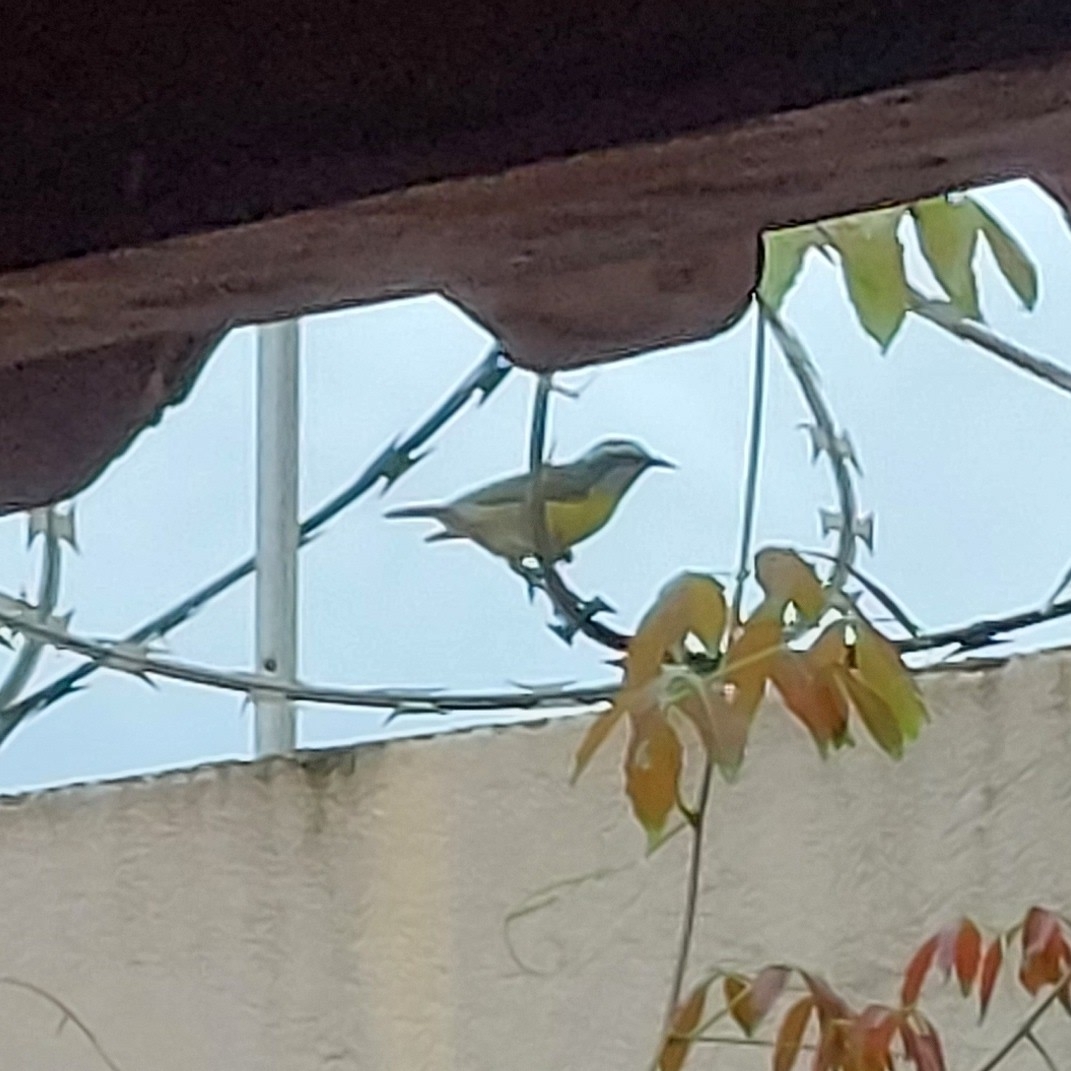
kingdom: Animalia
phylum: Chordata
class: Aves
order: Passeriformes
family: Thraupidae
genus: Coereba
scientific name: Coereba flaveola
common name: Bananaquit
